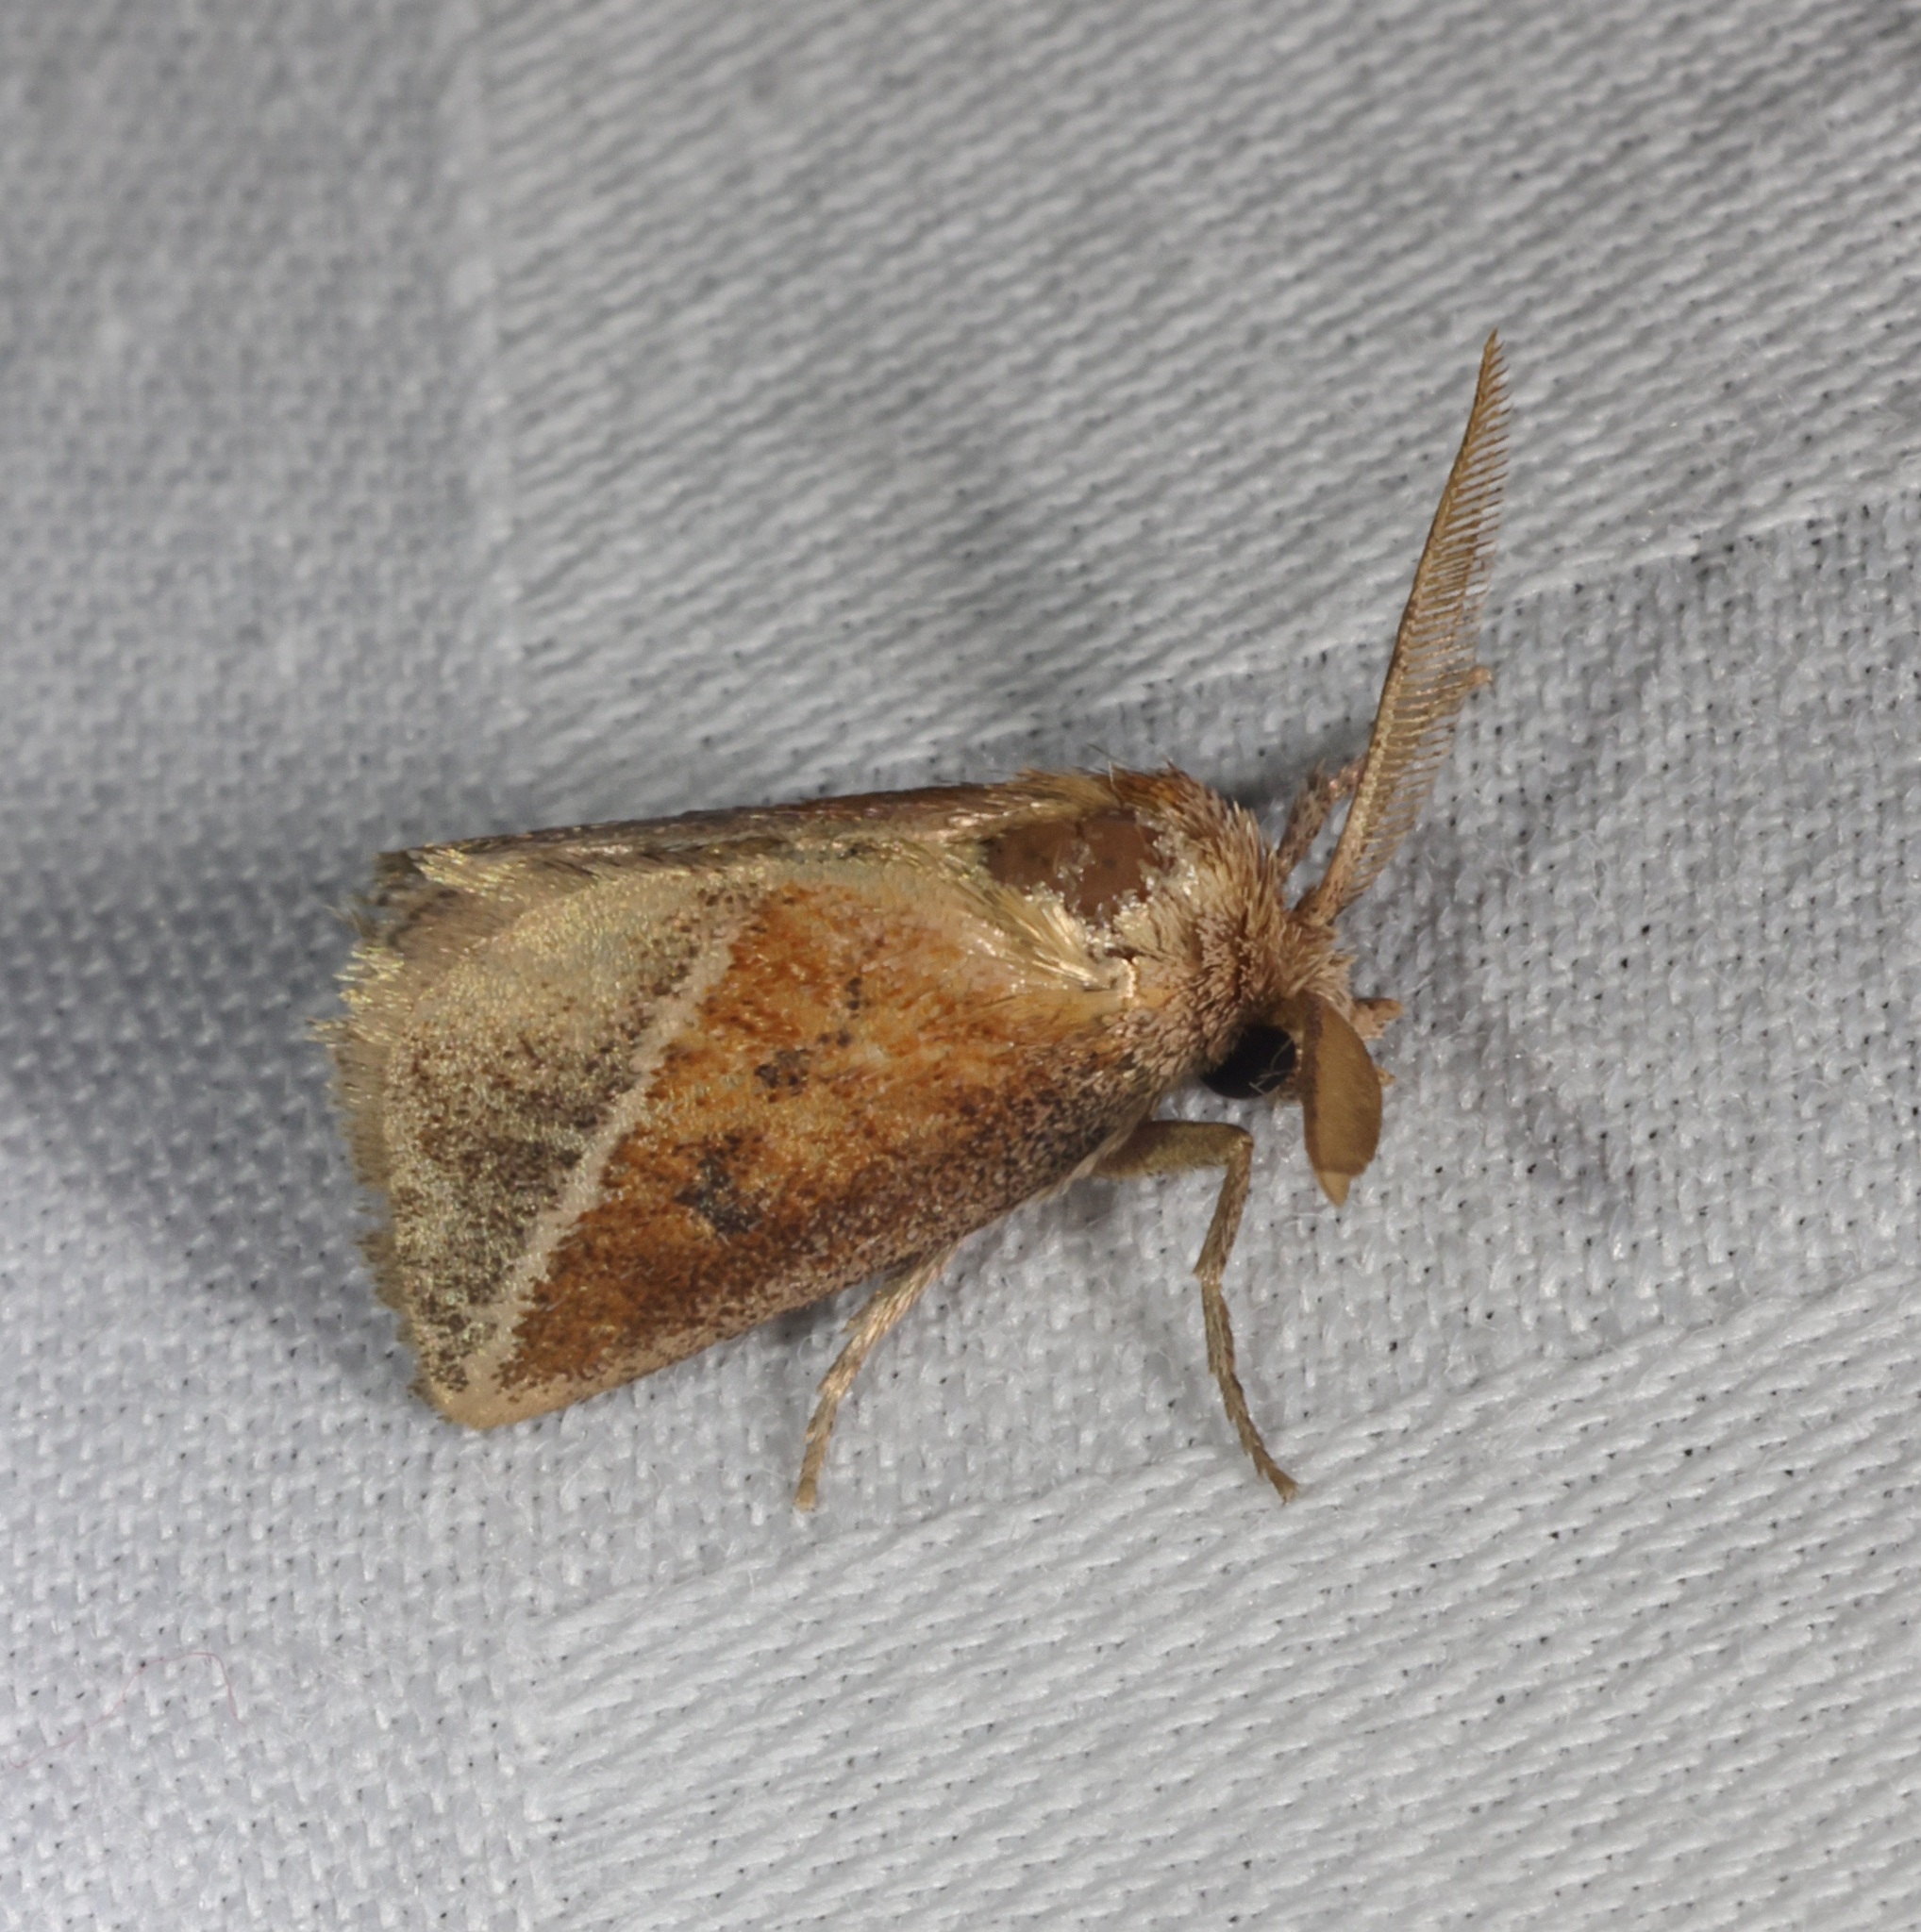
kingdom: Animalia
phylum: Arthropoda
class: Insecta
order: Lepidoptera
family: Limacodidae
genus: Oxyplax
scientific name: Oxyplax pallivitta
